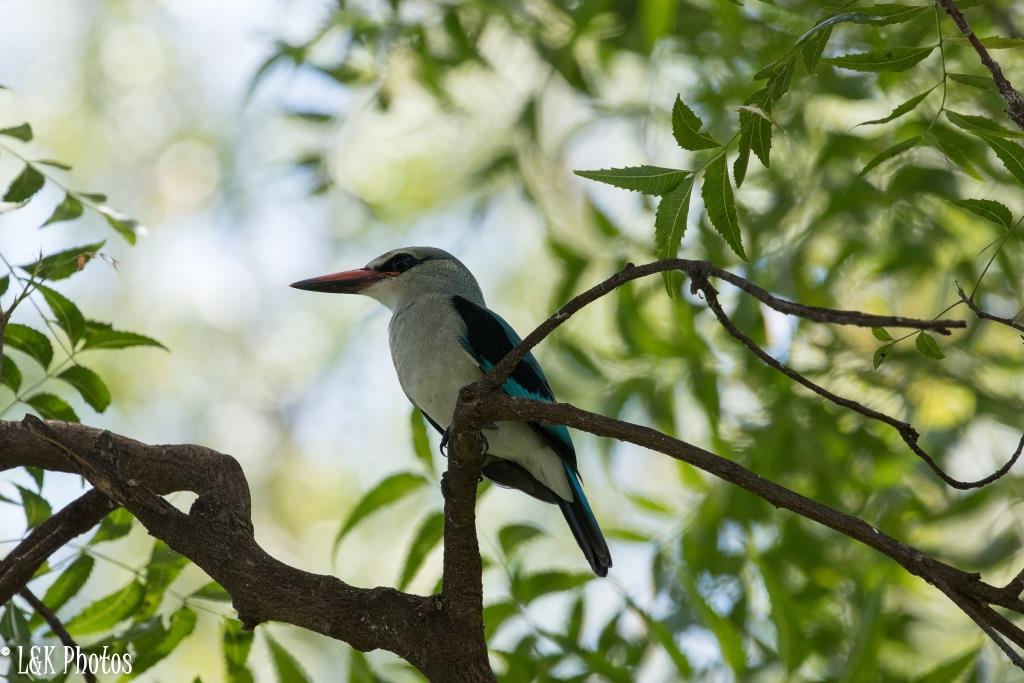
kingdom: Animalia
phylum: Chordata
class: Aves
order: Coraciiformes
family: Alcedinidae
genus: Halcyon
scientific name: Halcyon senegalensis
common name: Woodland kingfisher
